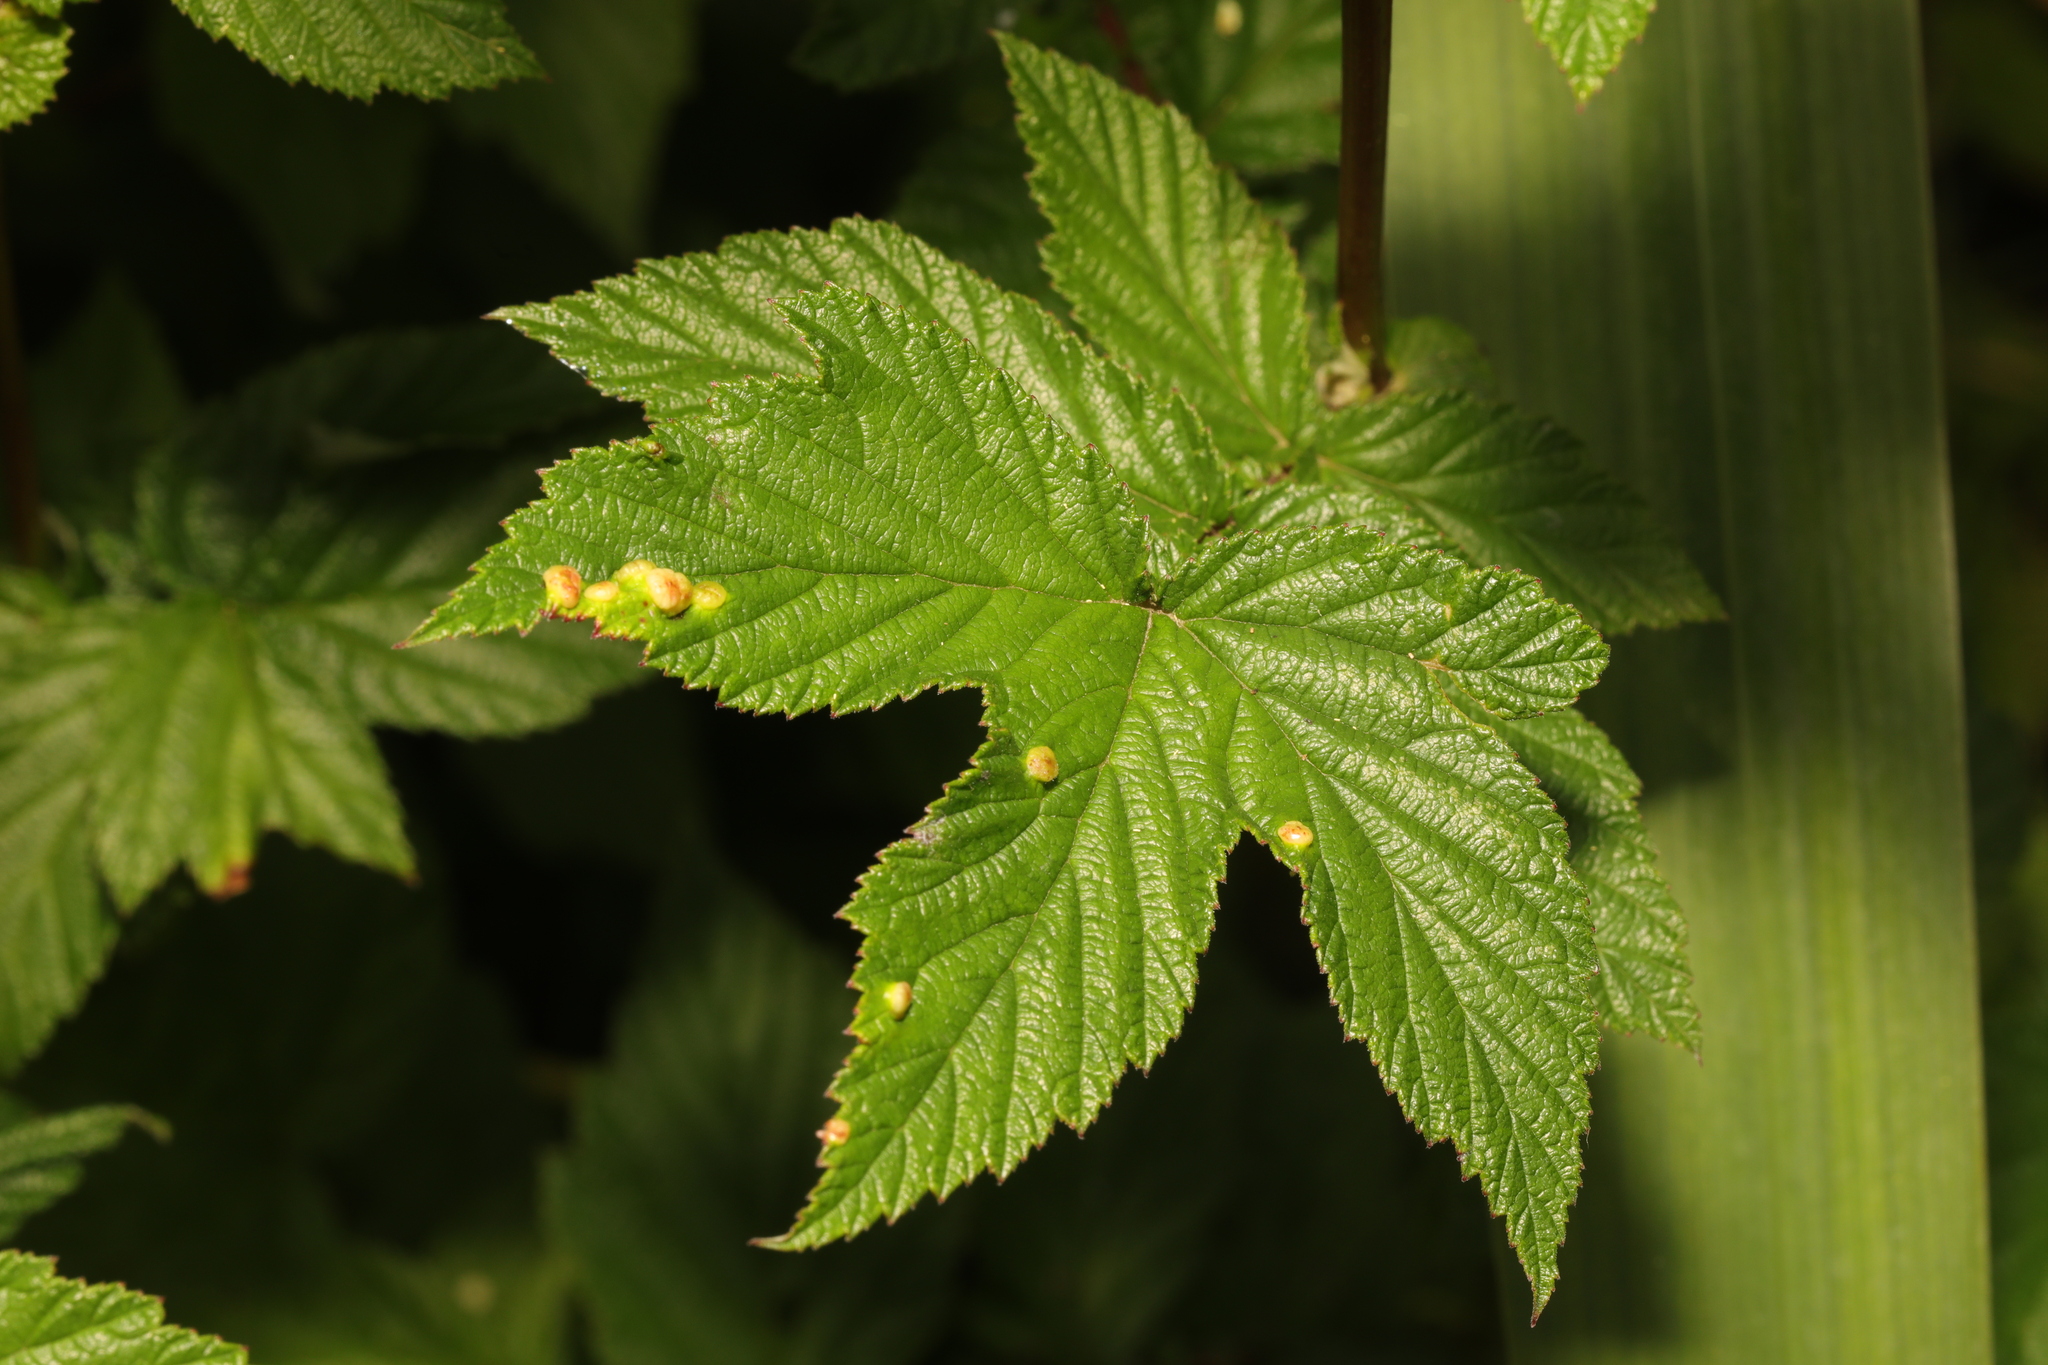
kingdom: Plantae
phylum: Tracheophyta
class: Magnoliopsida
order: Rosales
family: Rosaceae
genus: Filipendula
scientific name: Filipendula ulmaria
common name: Meadowsweet
